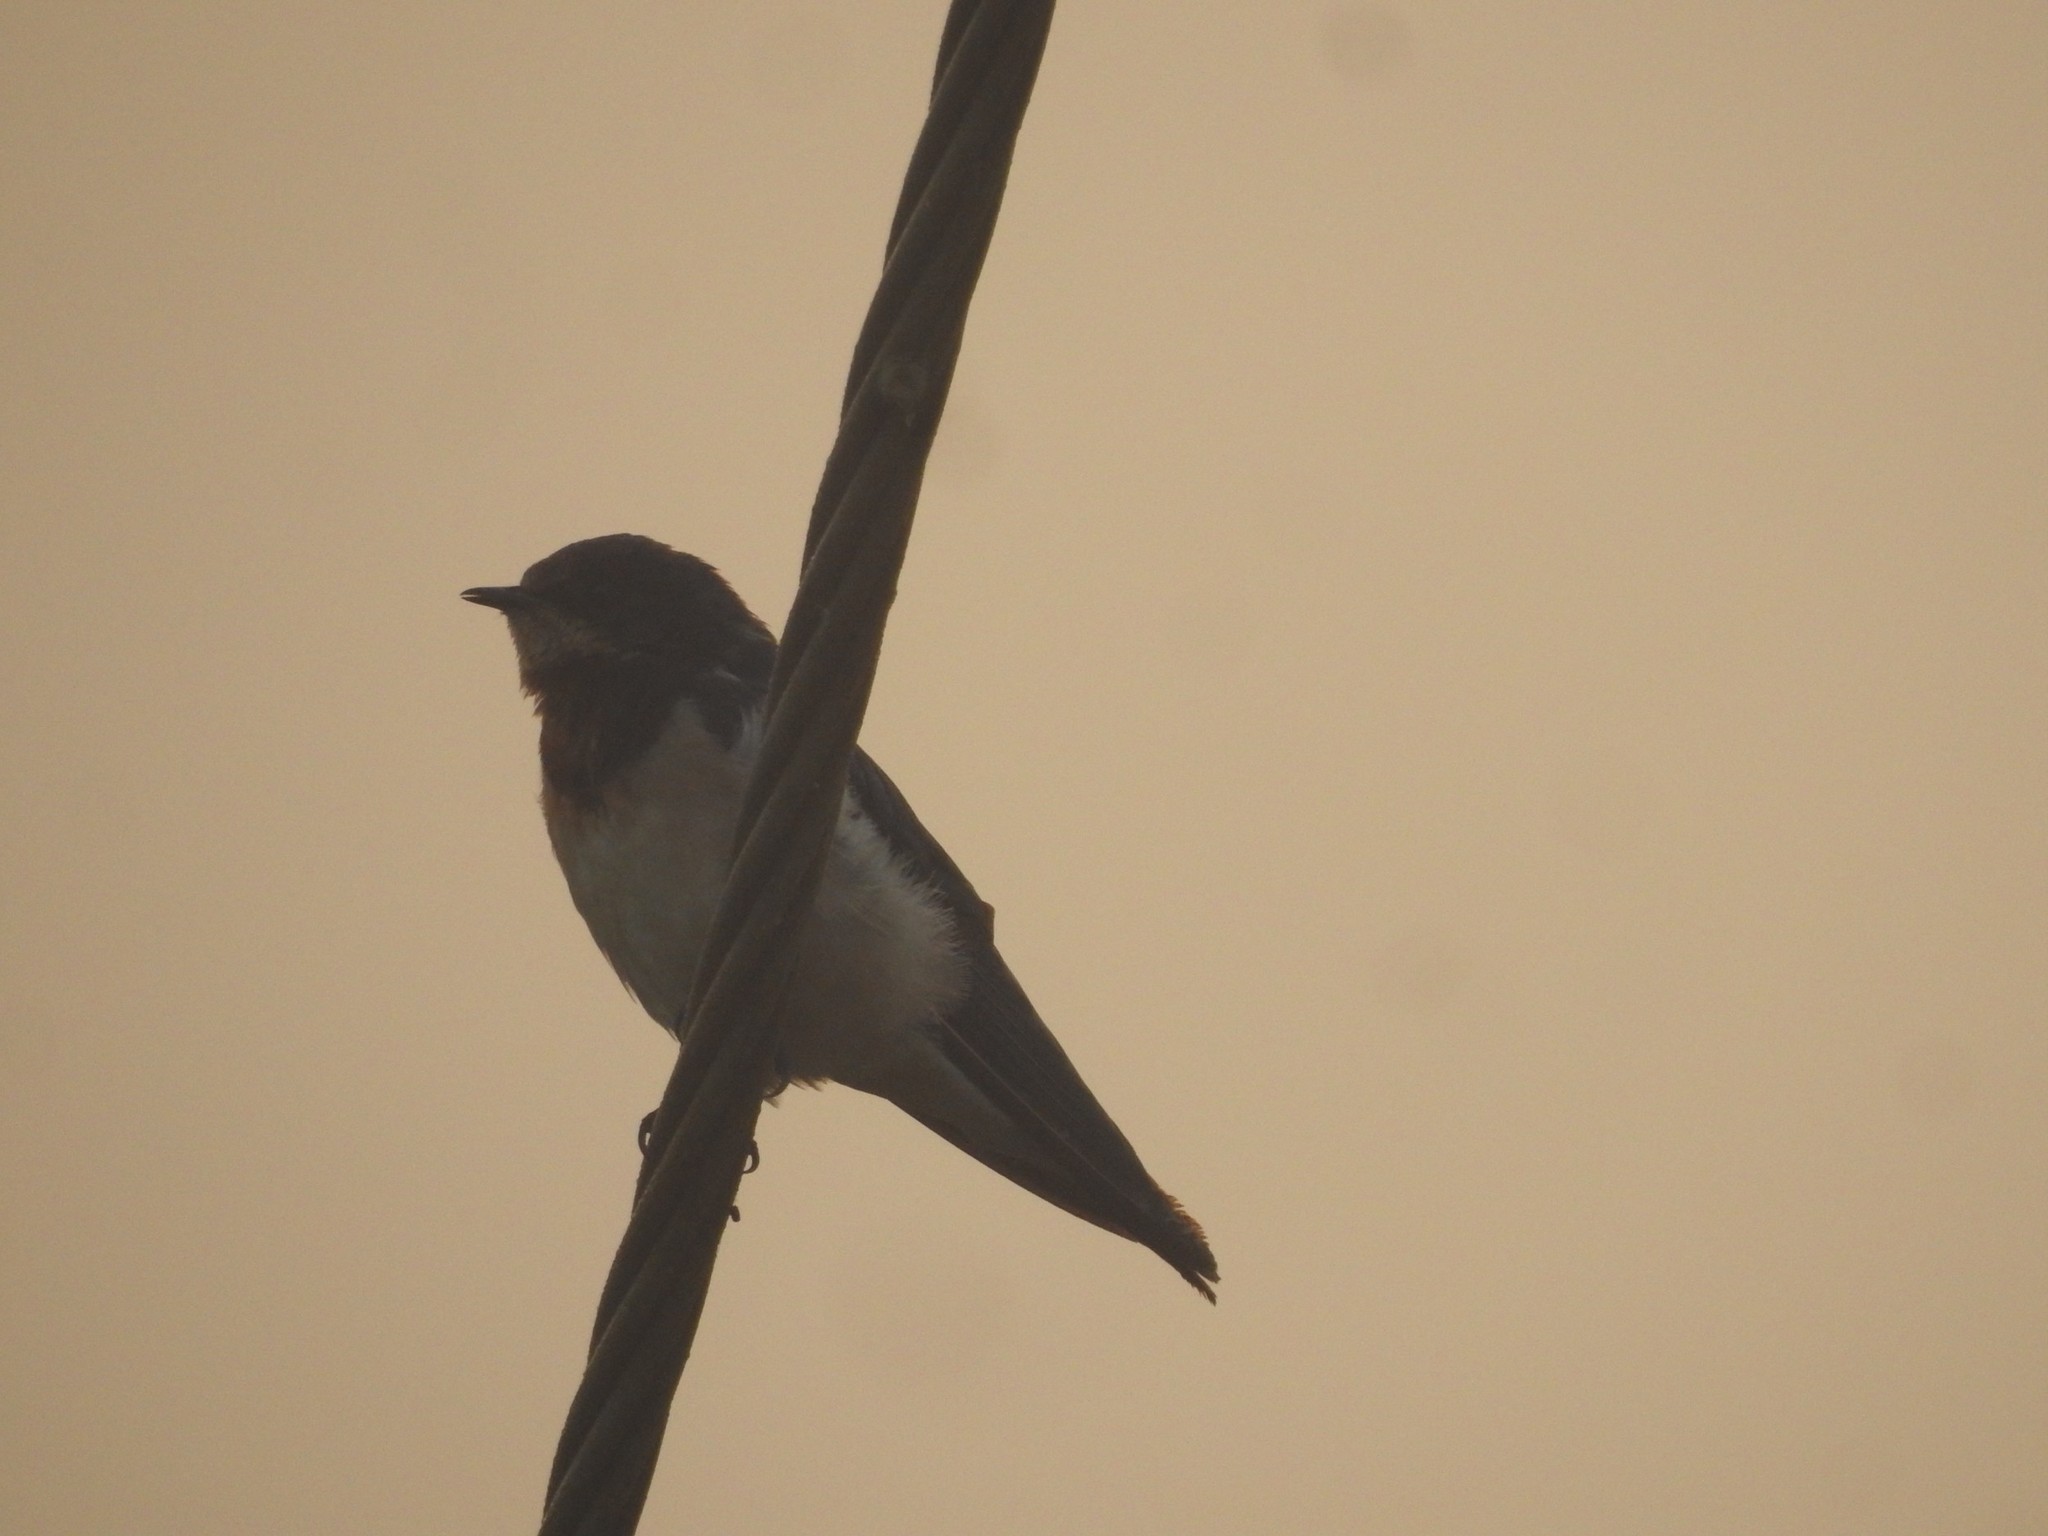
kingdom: Animalia
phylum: Chordata
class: Aves
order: Passeriformes
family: Hirundinidae
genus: Hirundo
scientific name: Hirundo rustica
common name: Barn swallow
